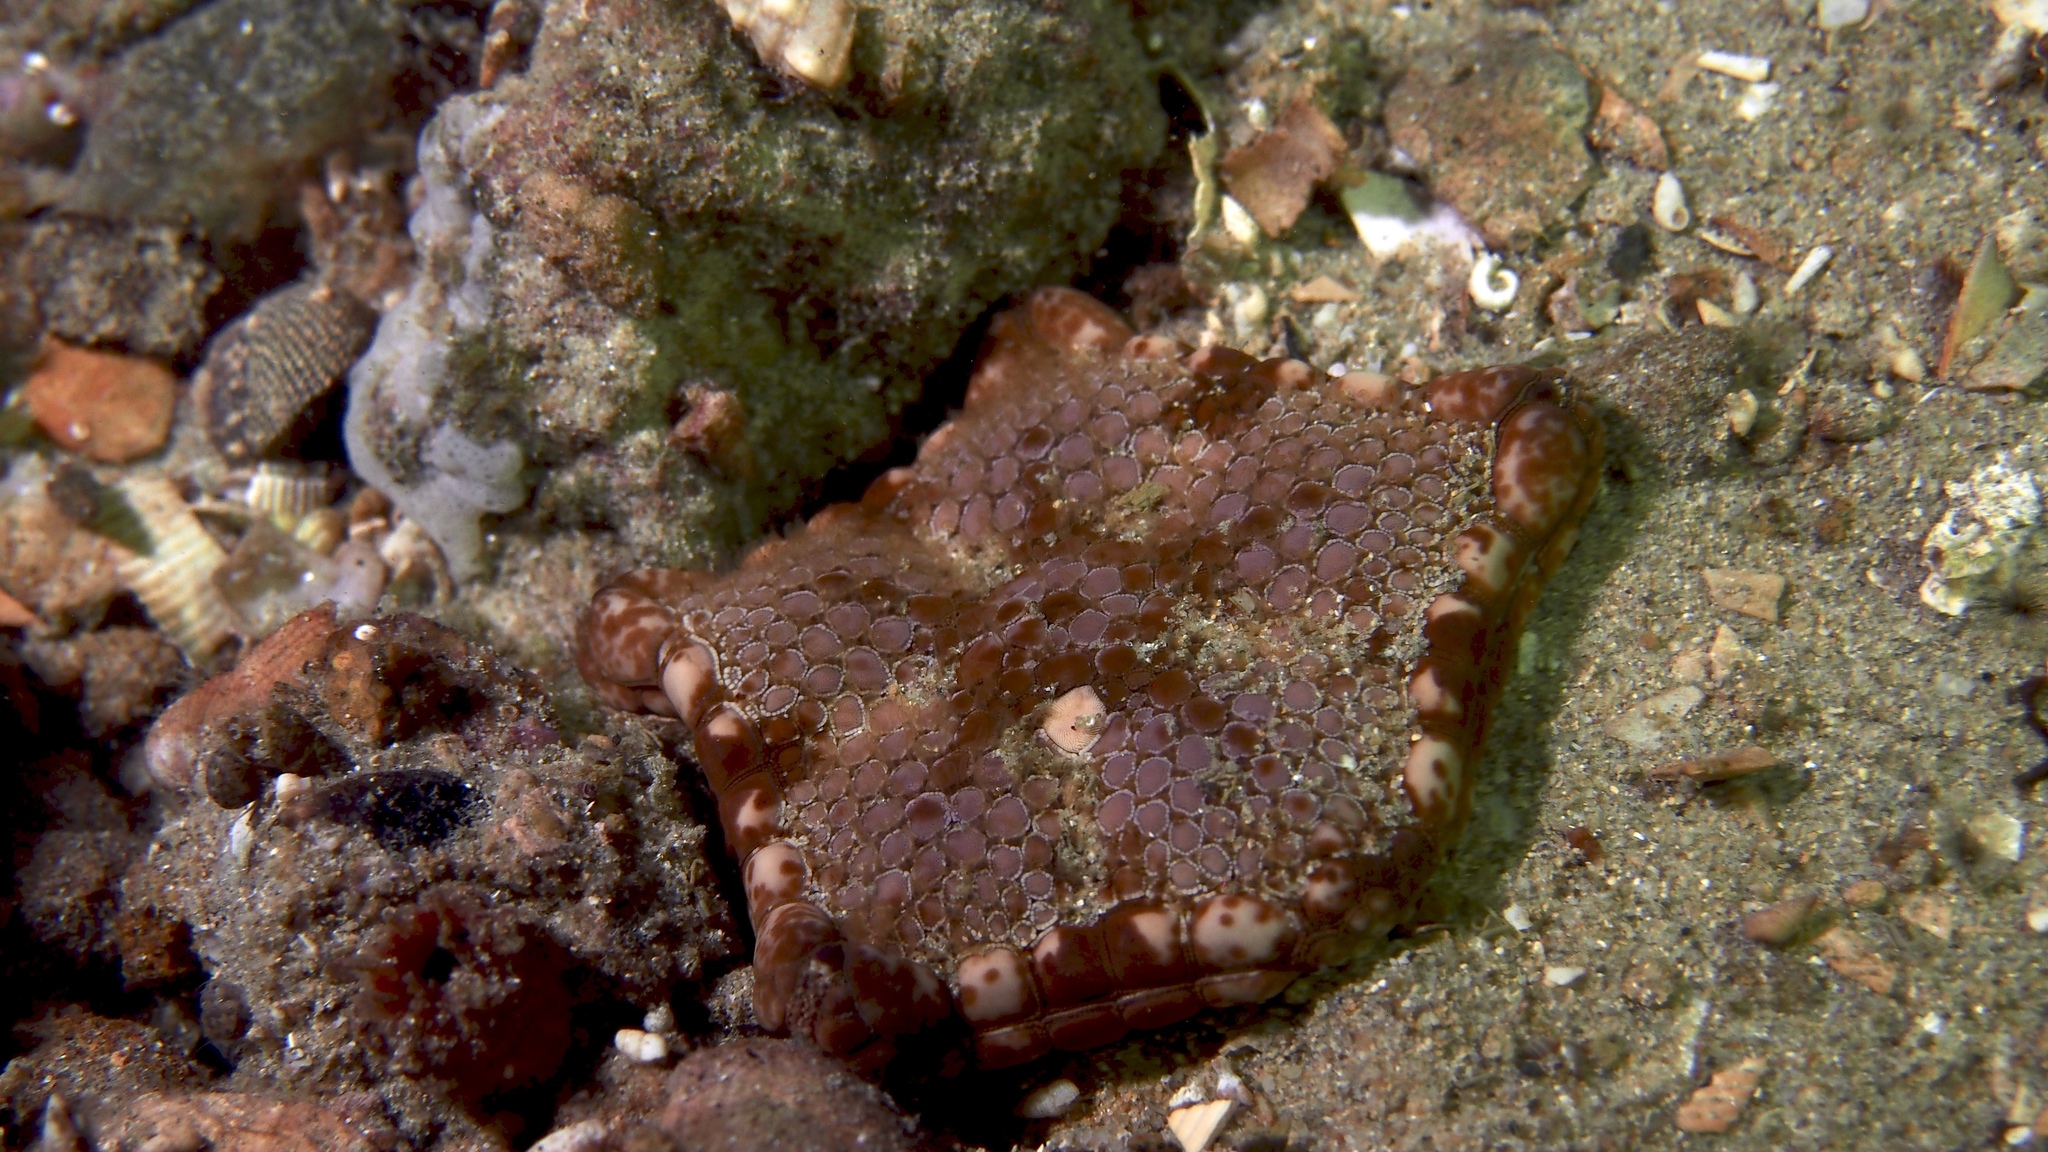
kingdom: Animalia
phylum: Echinodermata
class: Asteroidea
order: Valvatida
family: Goniasteridae
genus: Tosia
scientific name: Tosia australis
